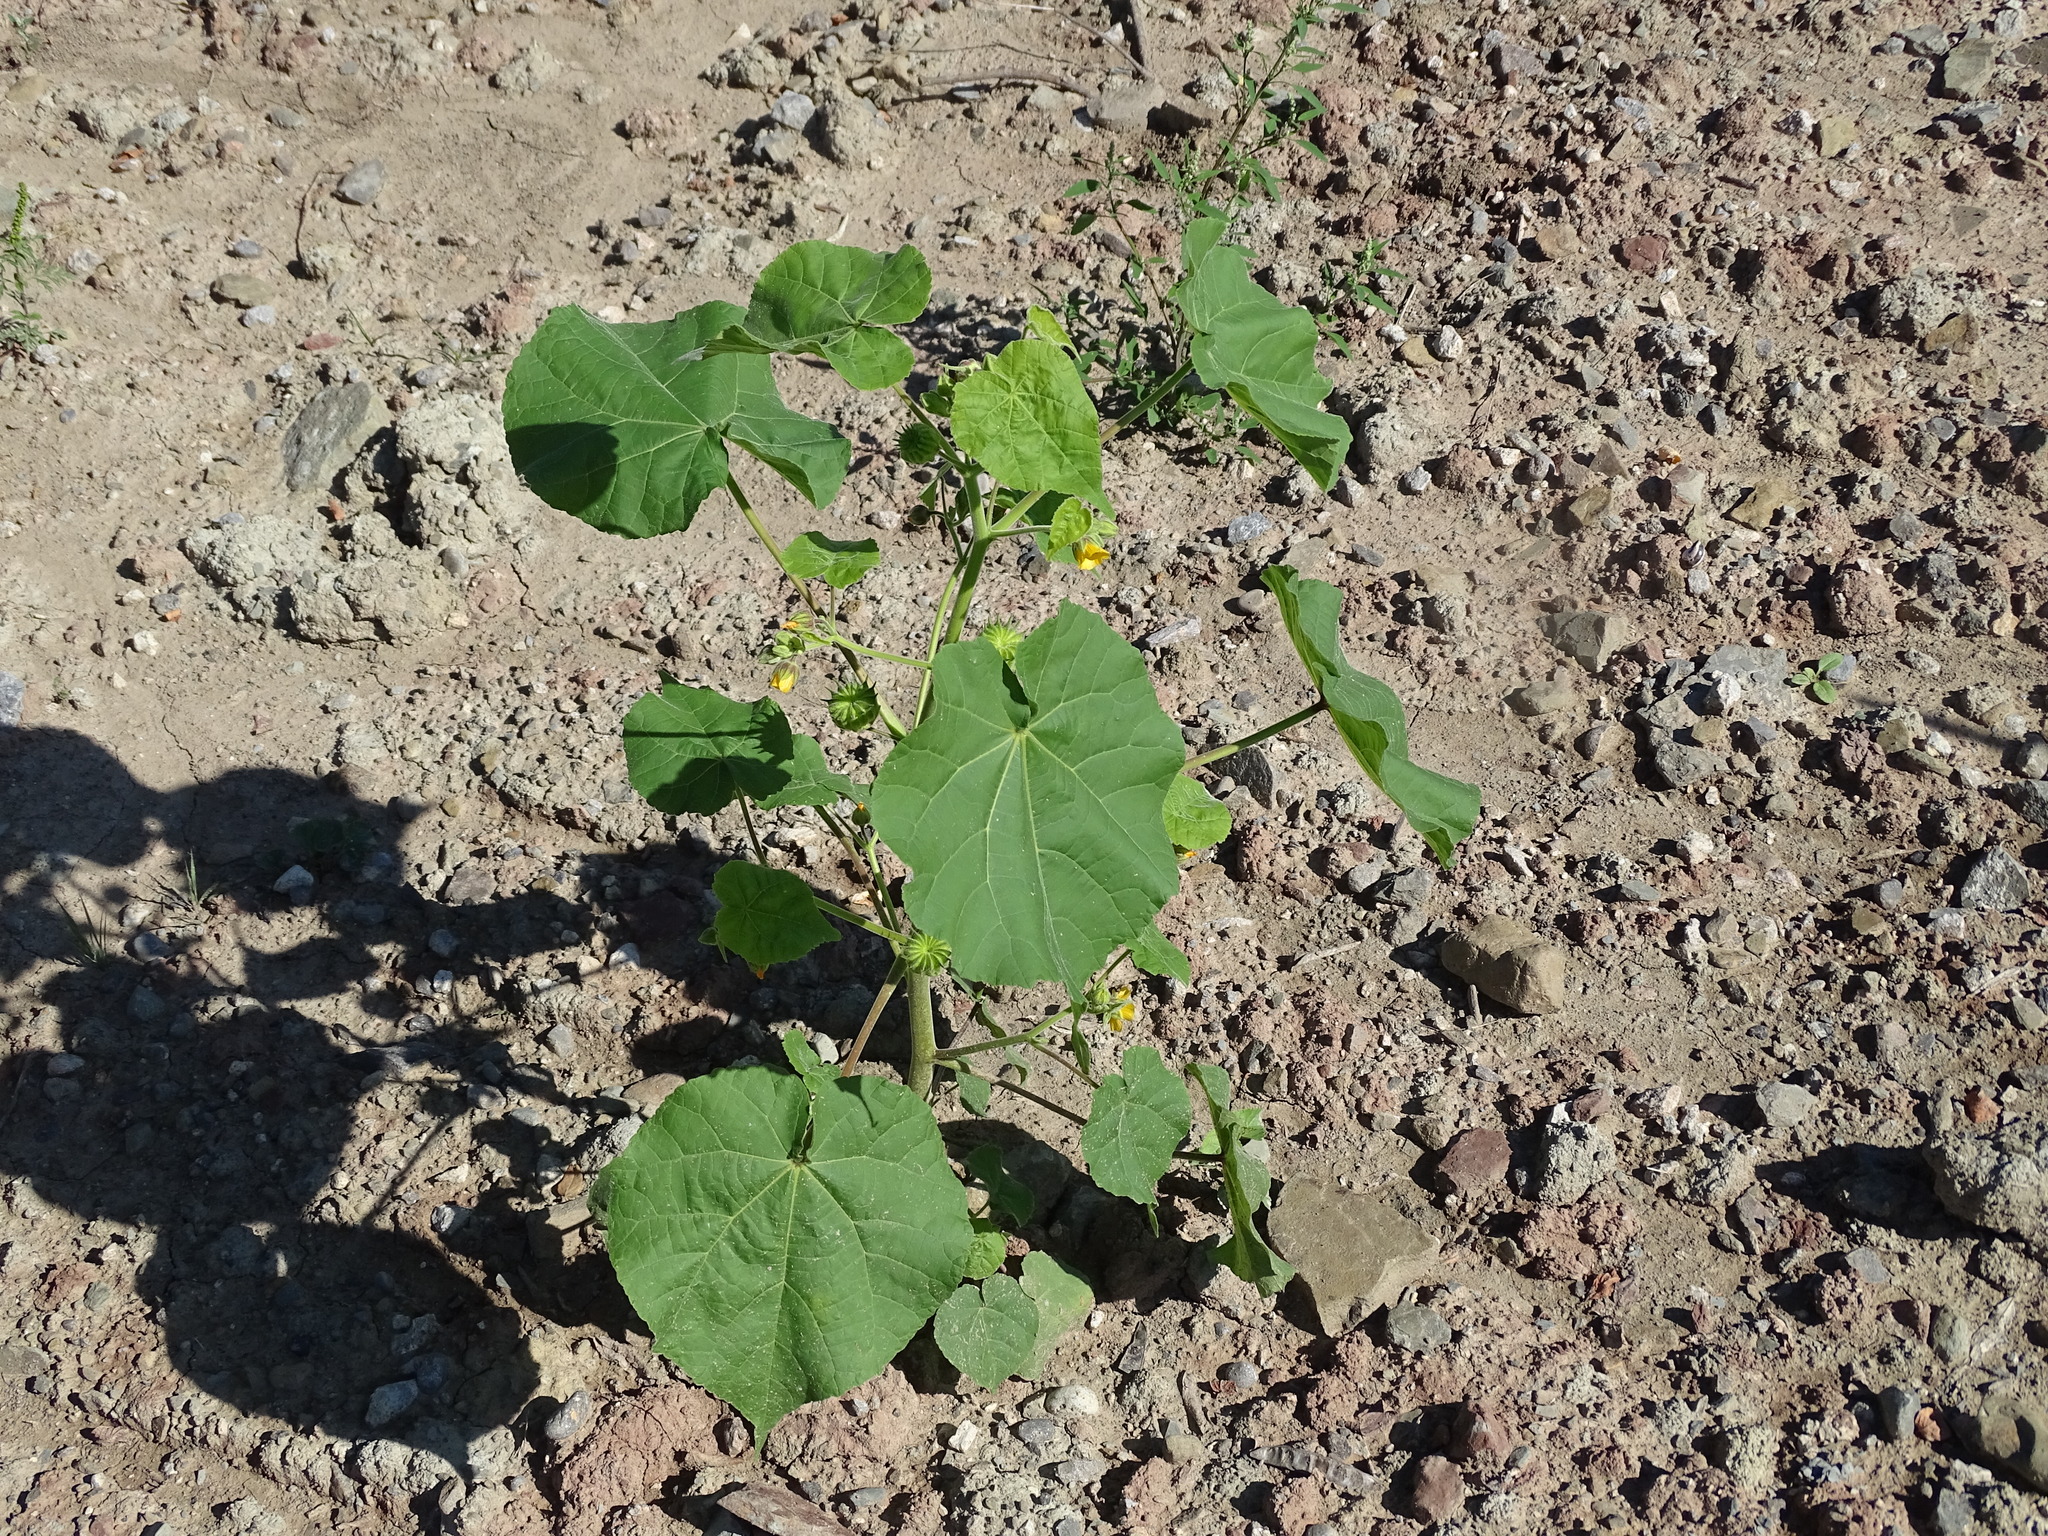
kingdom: Plantae
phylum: Tracheophyta
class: Magnoliopsida
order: Malvales
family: Malvaceae
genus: Abutilon
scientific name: Abutilon theophrasti
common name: Velvetleaf
